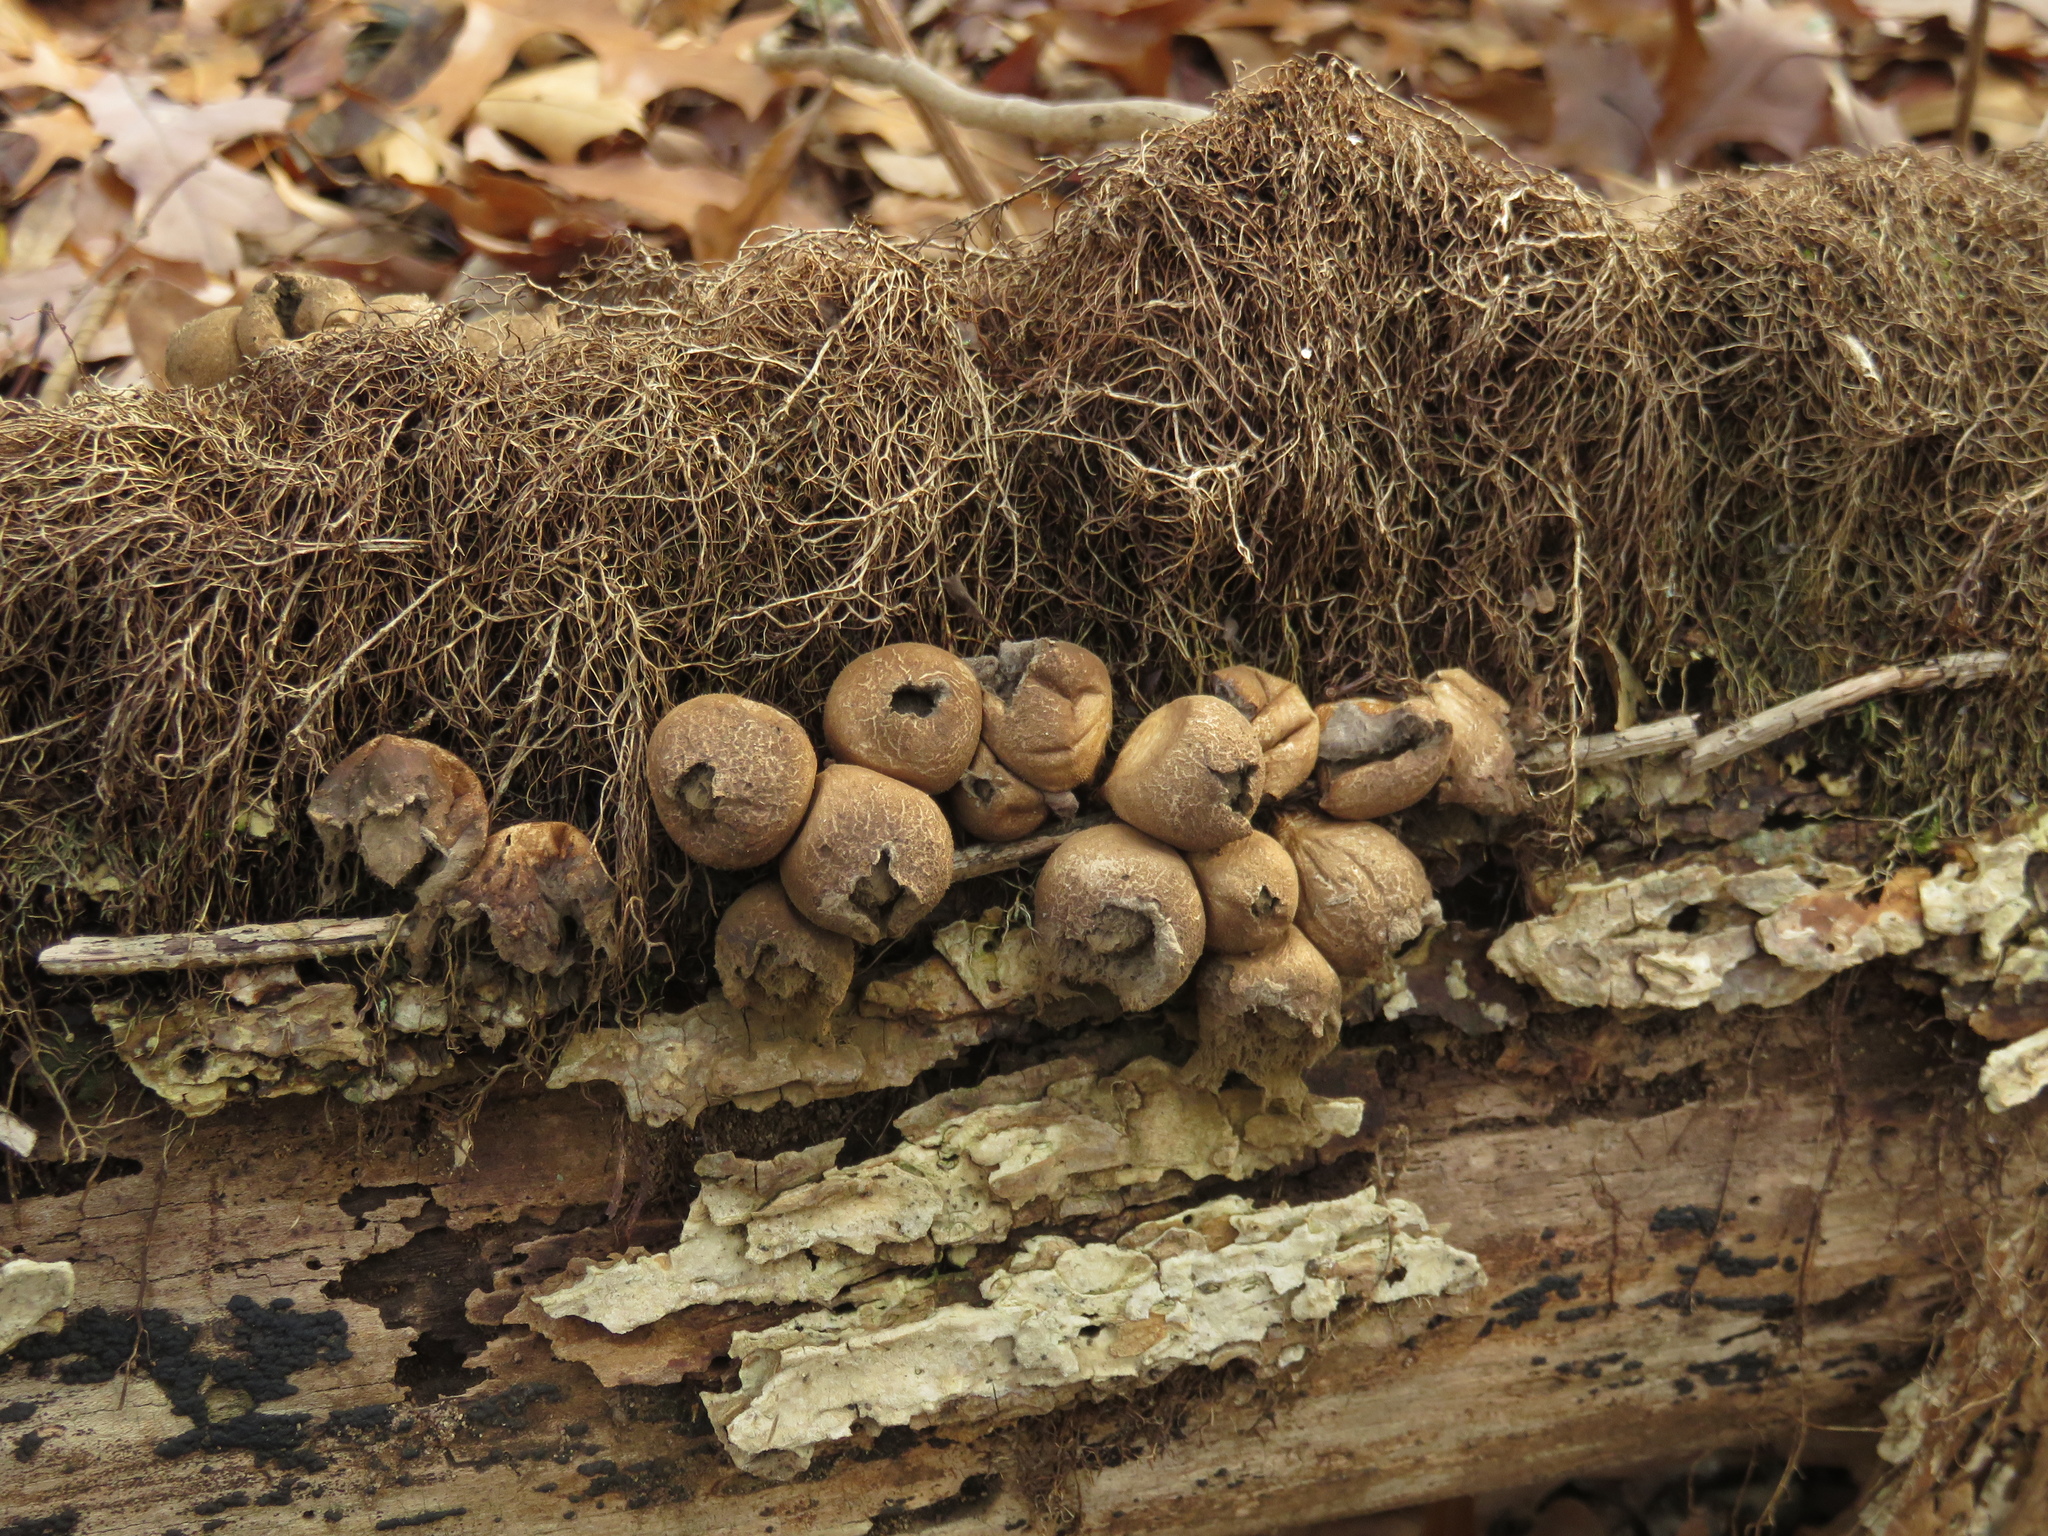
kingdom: Fungi
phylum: Basidiomycota
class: Agaricomycetes
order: Agaricales
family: Lycoperdaceae
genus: Apioperdon
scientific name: Apioperdon pyriforme
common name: Pear-shaped puffball
